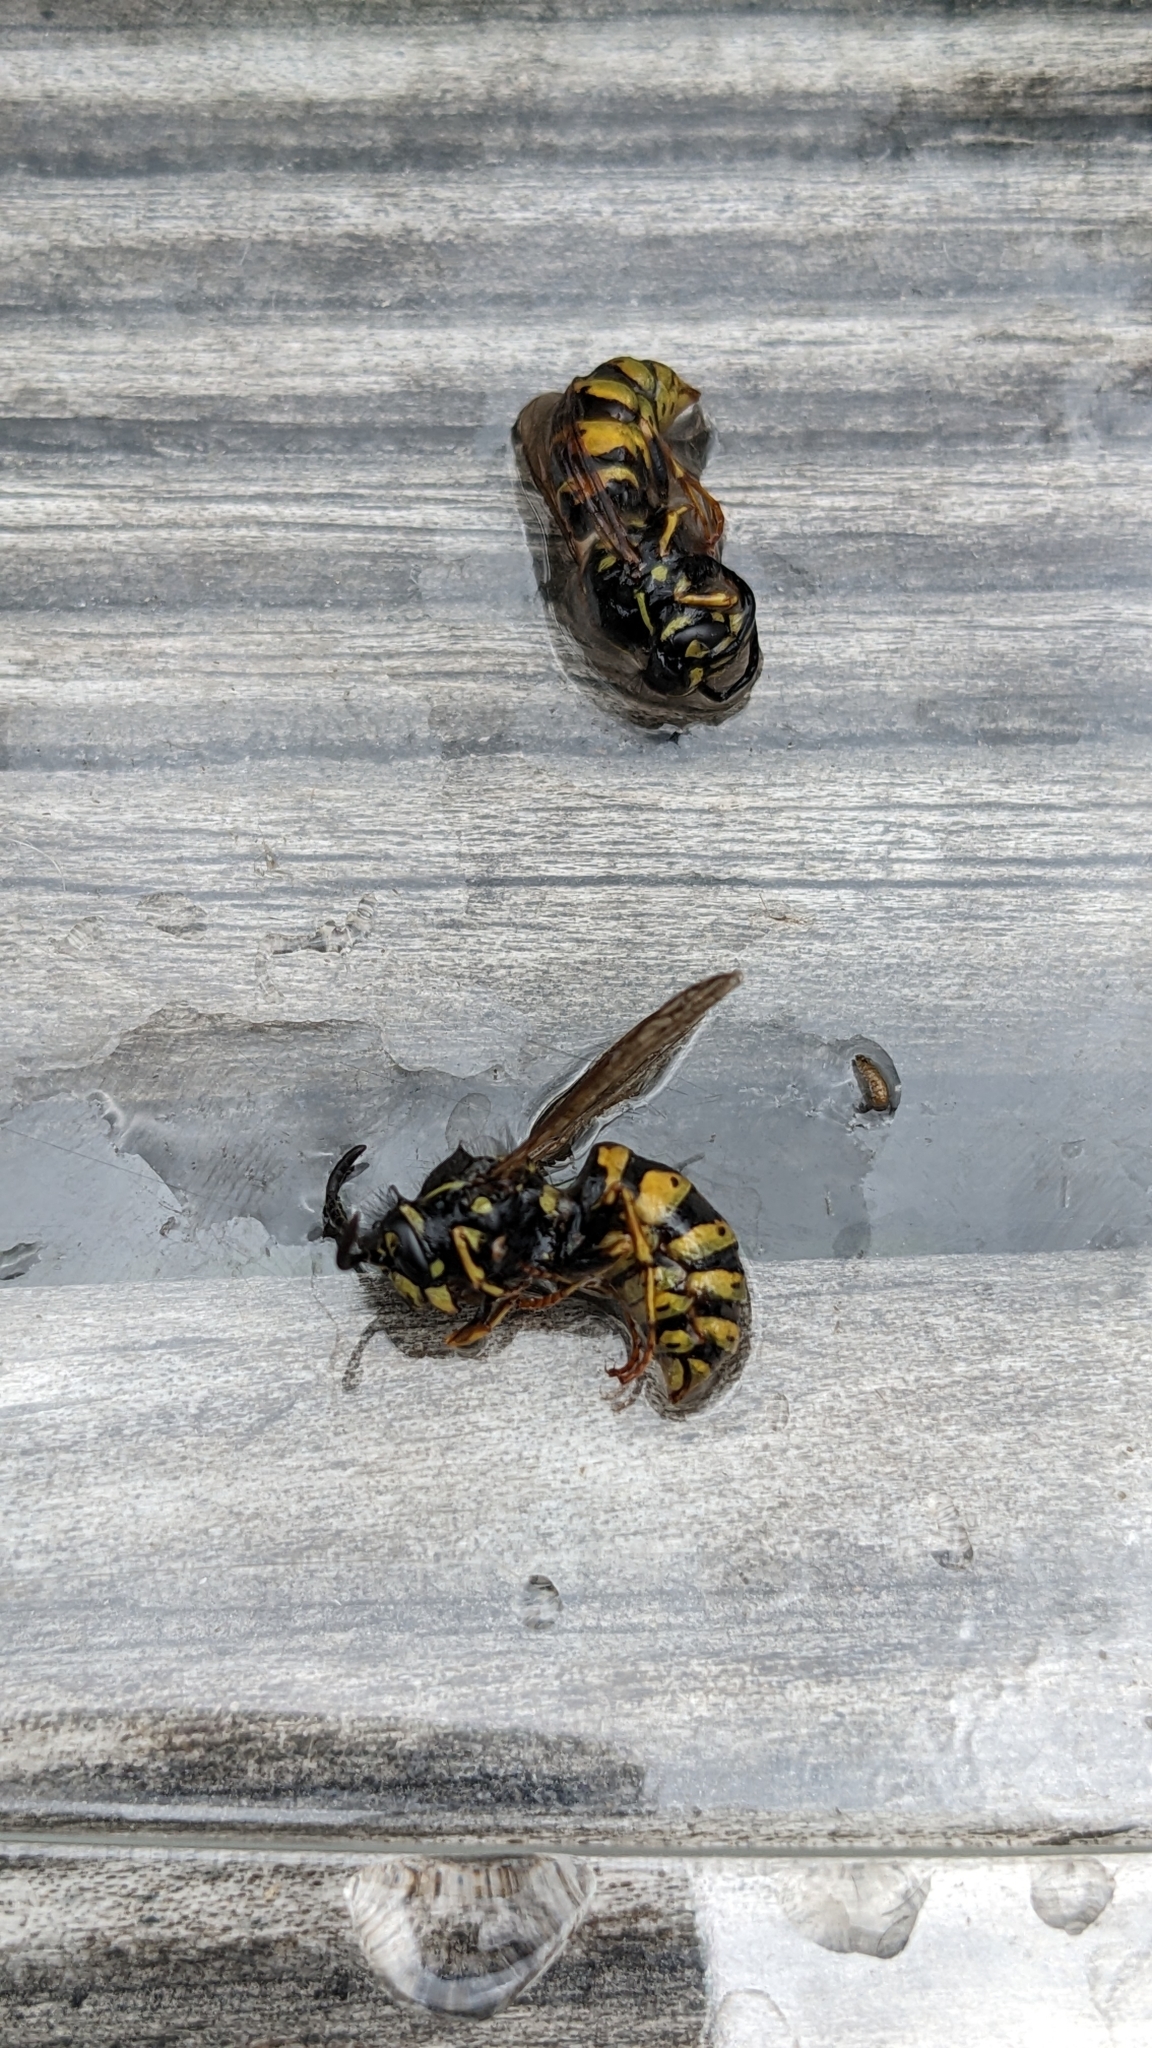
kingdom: Animalia
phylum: Arthropoda
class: Insecta
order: Hymenoptera
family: Vespidae
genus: Vespula
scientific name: Vespula vulgaris
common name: Common wasp
